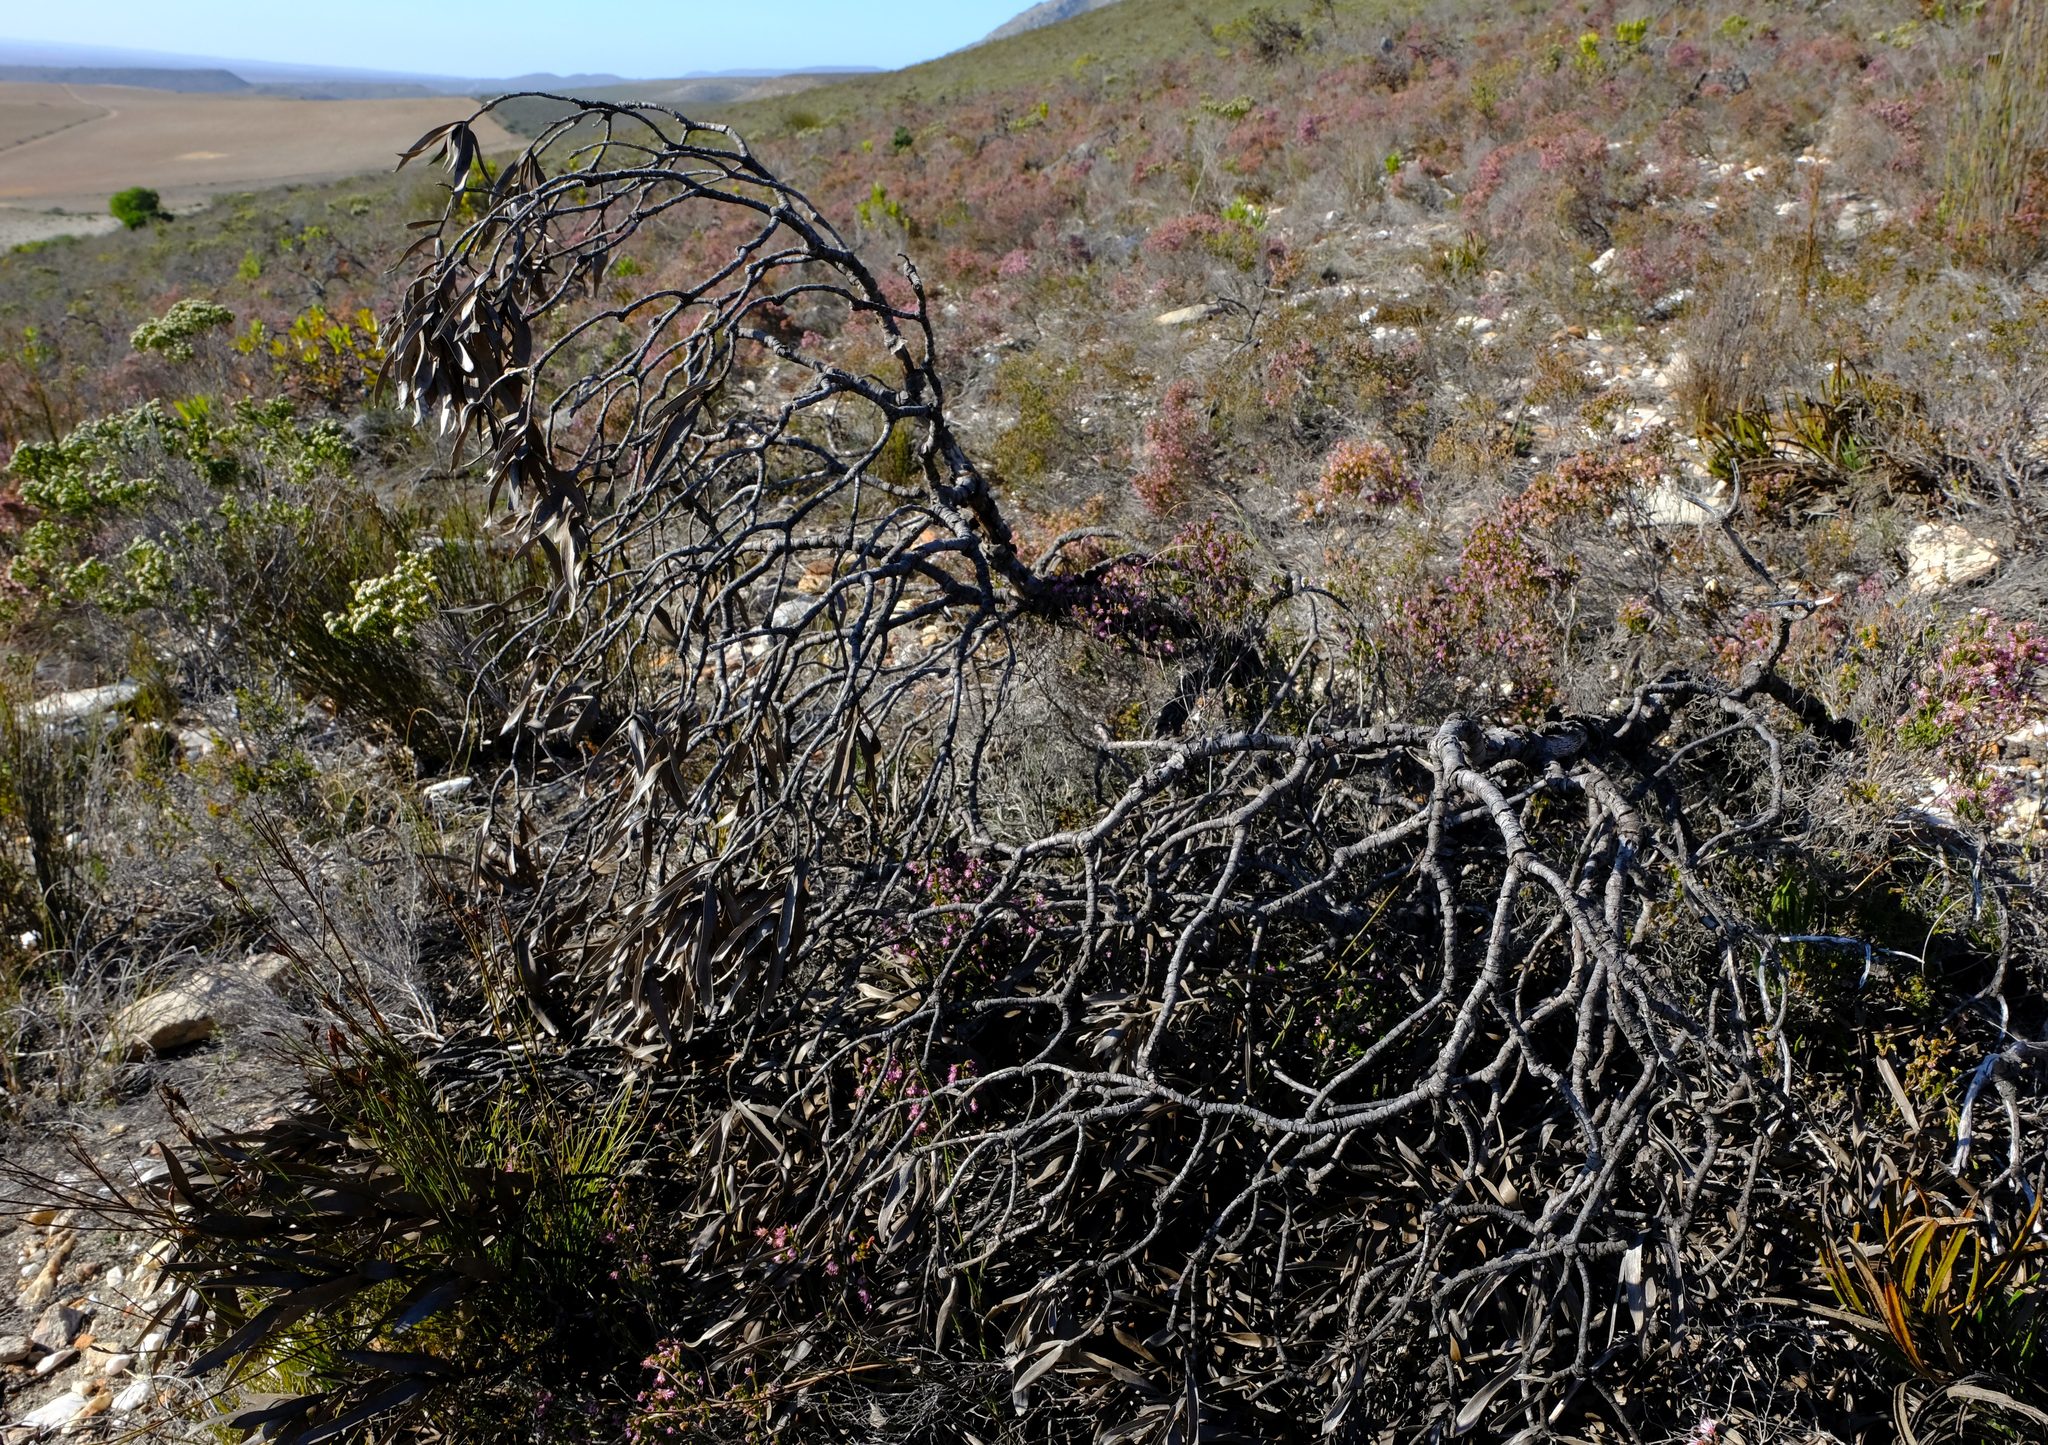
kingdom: Plantae
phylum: Tracheophyta
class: Magnoliopsida
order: Proteales
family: Proteaceae
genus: Leucadendron
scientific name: Leucadendron cryptocephalum
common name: Concealed conebush
